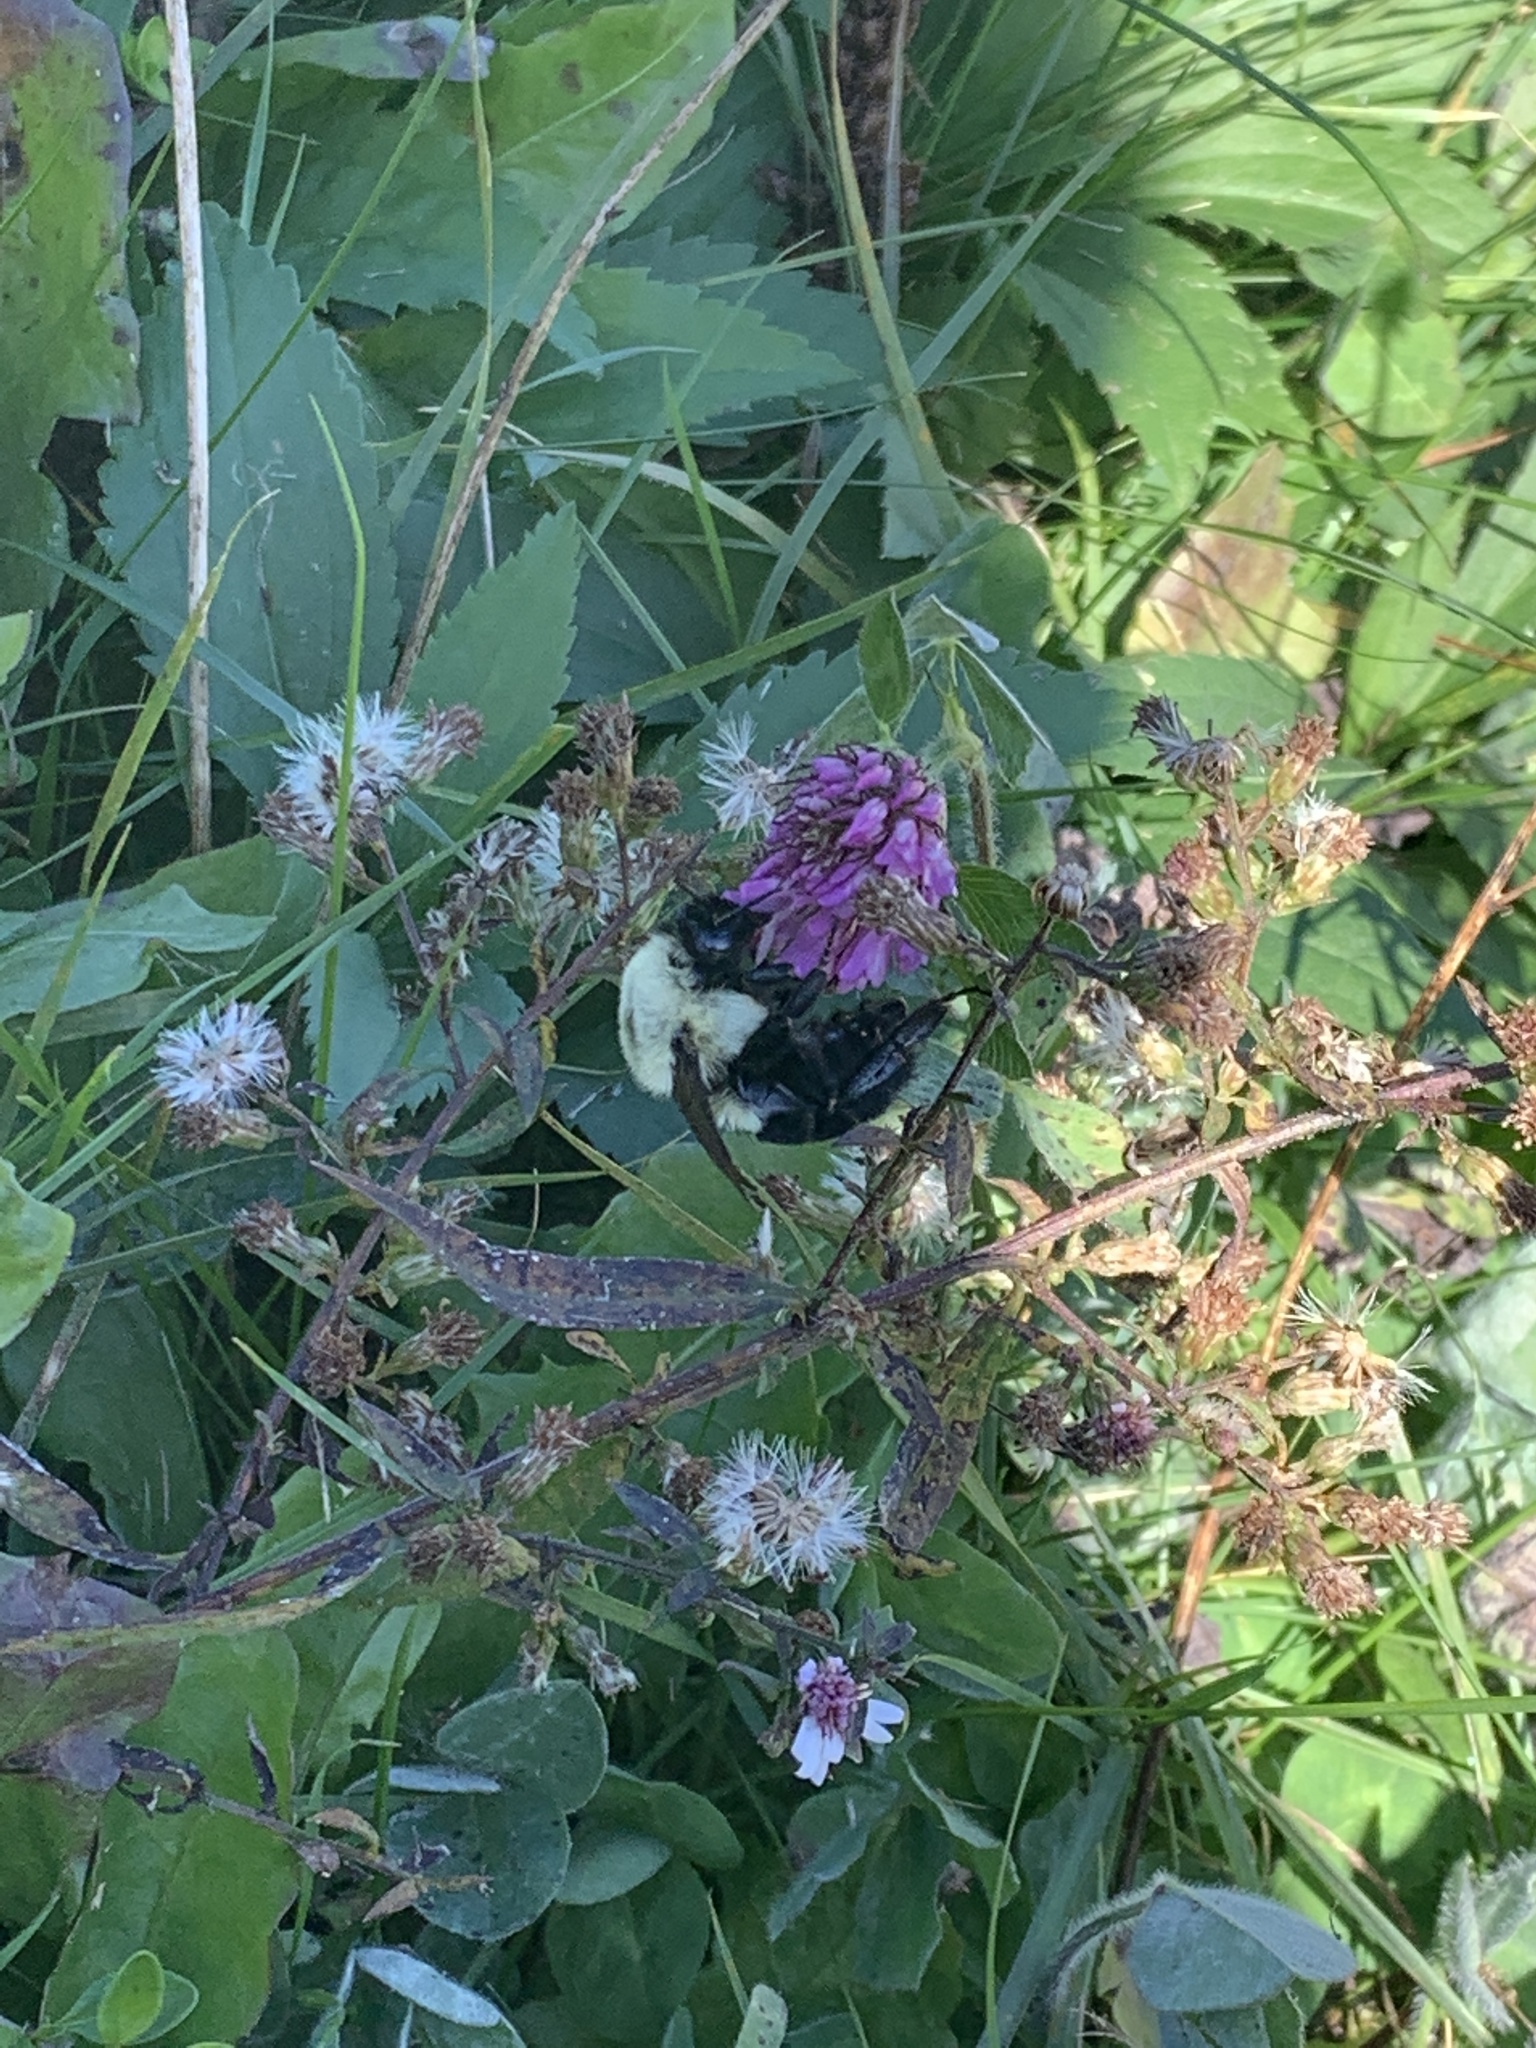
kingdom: Animalia
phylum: Arthropoda
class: Insecta
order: Hymenoptera
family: Apidae
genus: Bombus
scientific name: Bombus impatiens
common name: Common eastern bumble bee
